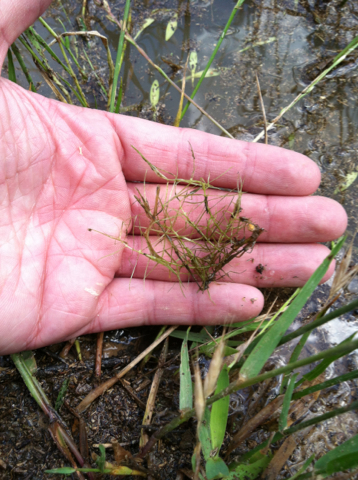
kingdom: Plantae
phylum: Tracheophyta
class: Liliopsida
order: Alismatales
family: Hydrocharitaceae
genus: Najas
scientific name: Najas guadalupensis
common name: Southern naiad
